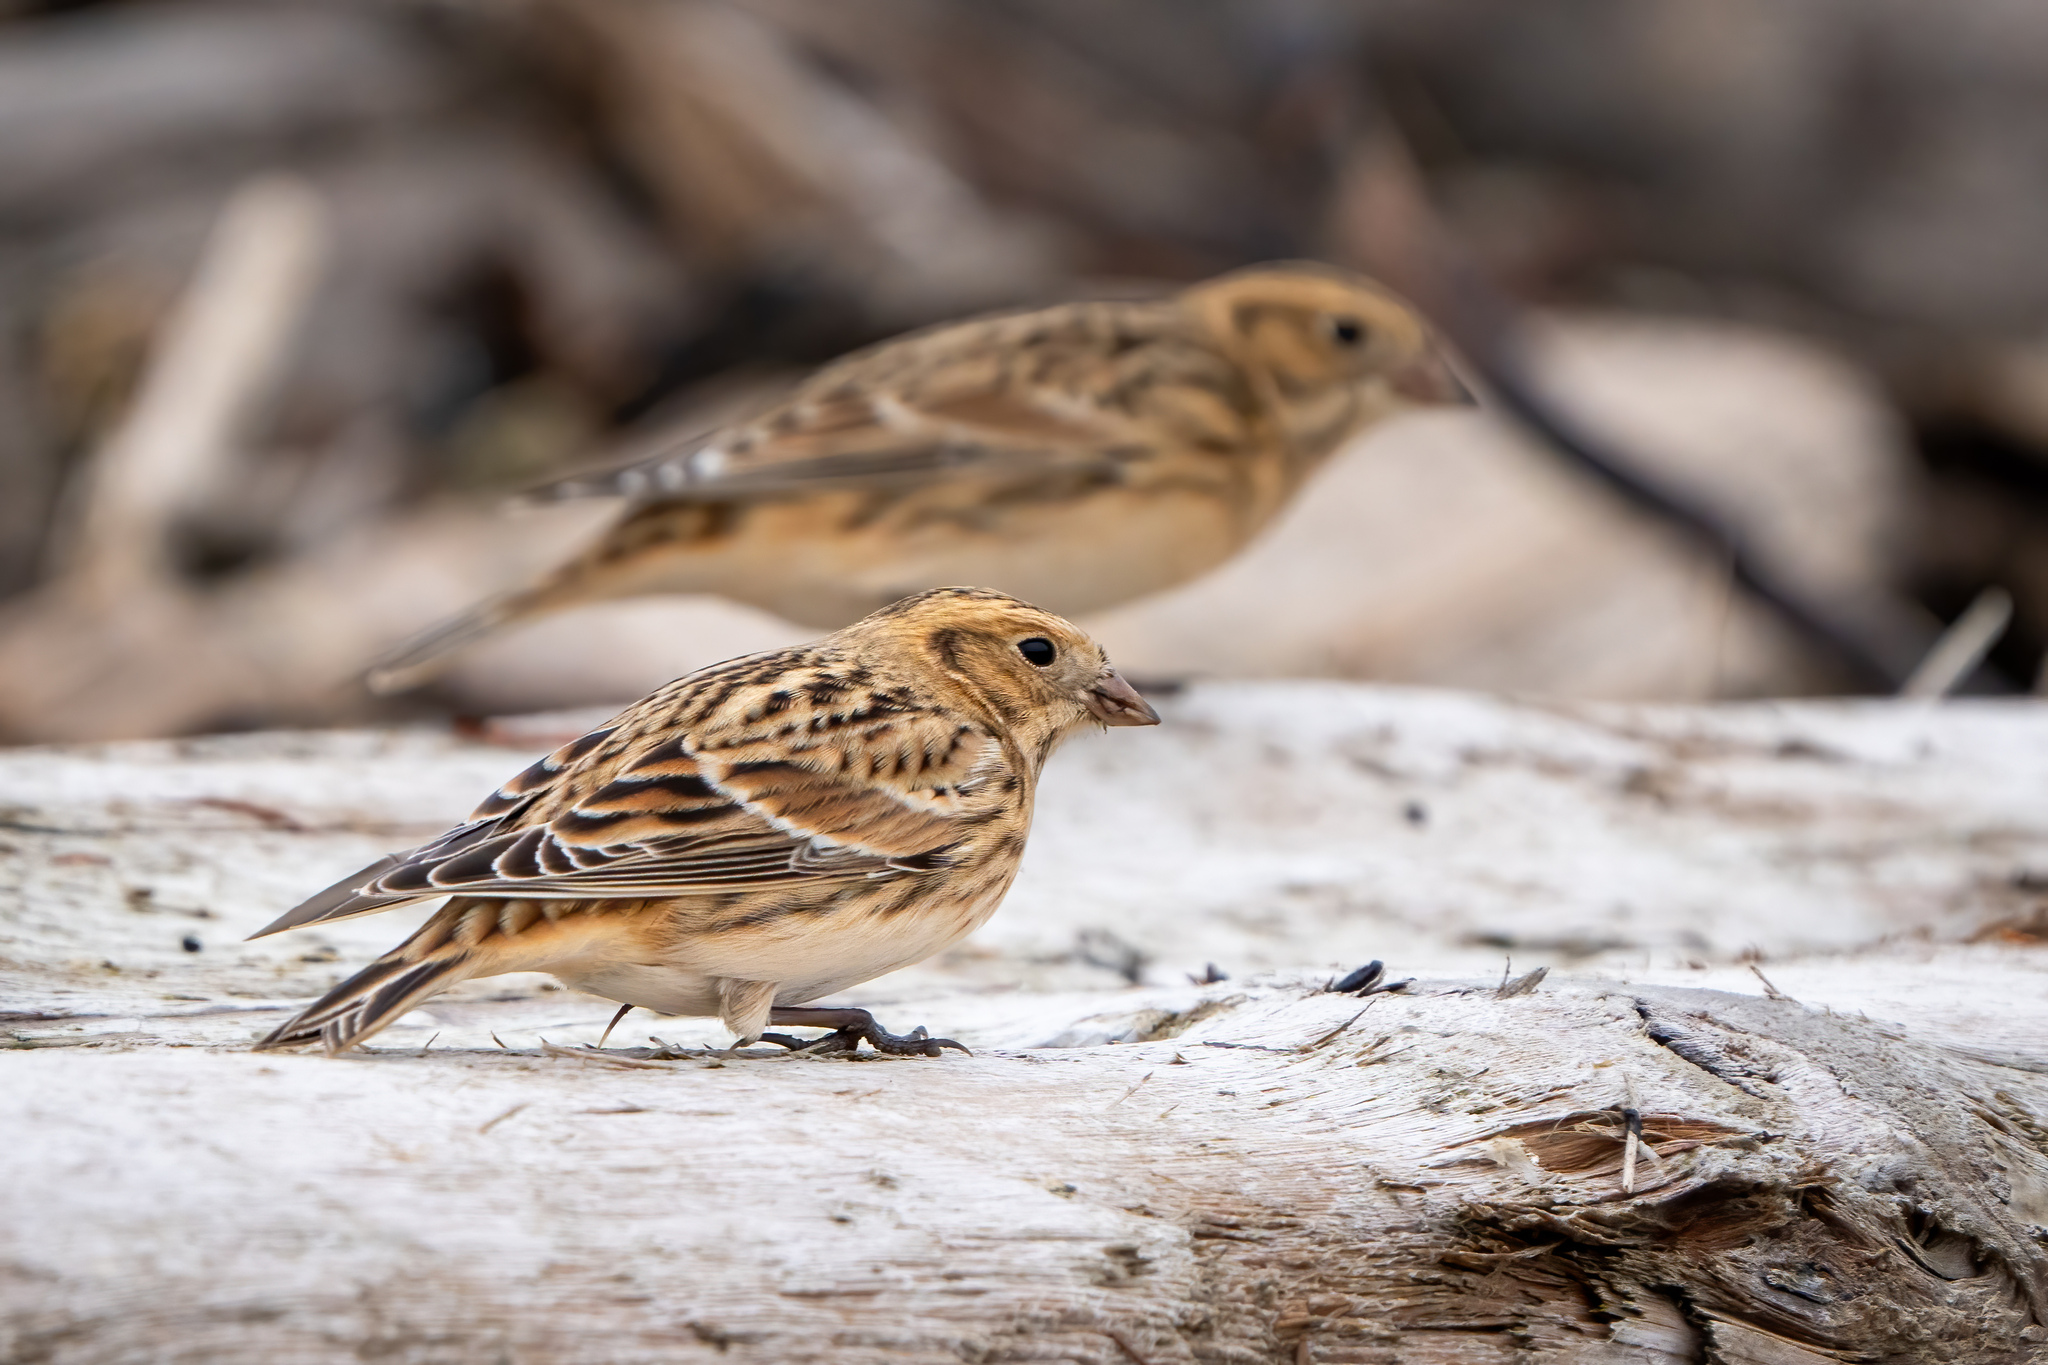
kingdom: Animalia
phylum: Chordata
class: Aves
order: Passeriformes
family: Calcariidae
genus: Calcarius
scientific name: Calcarius lapponicus
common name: Lapland longspur
